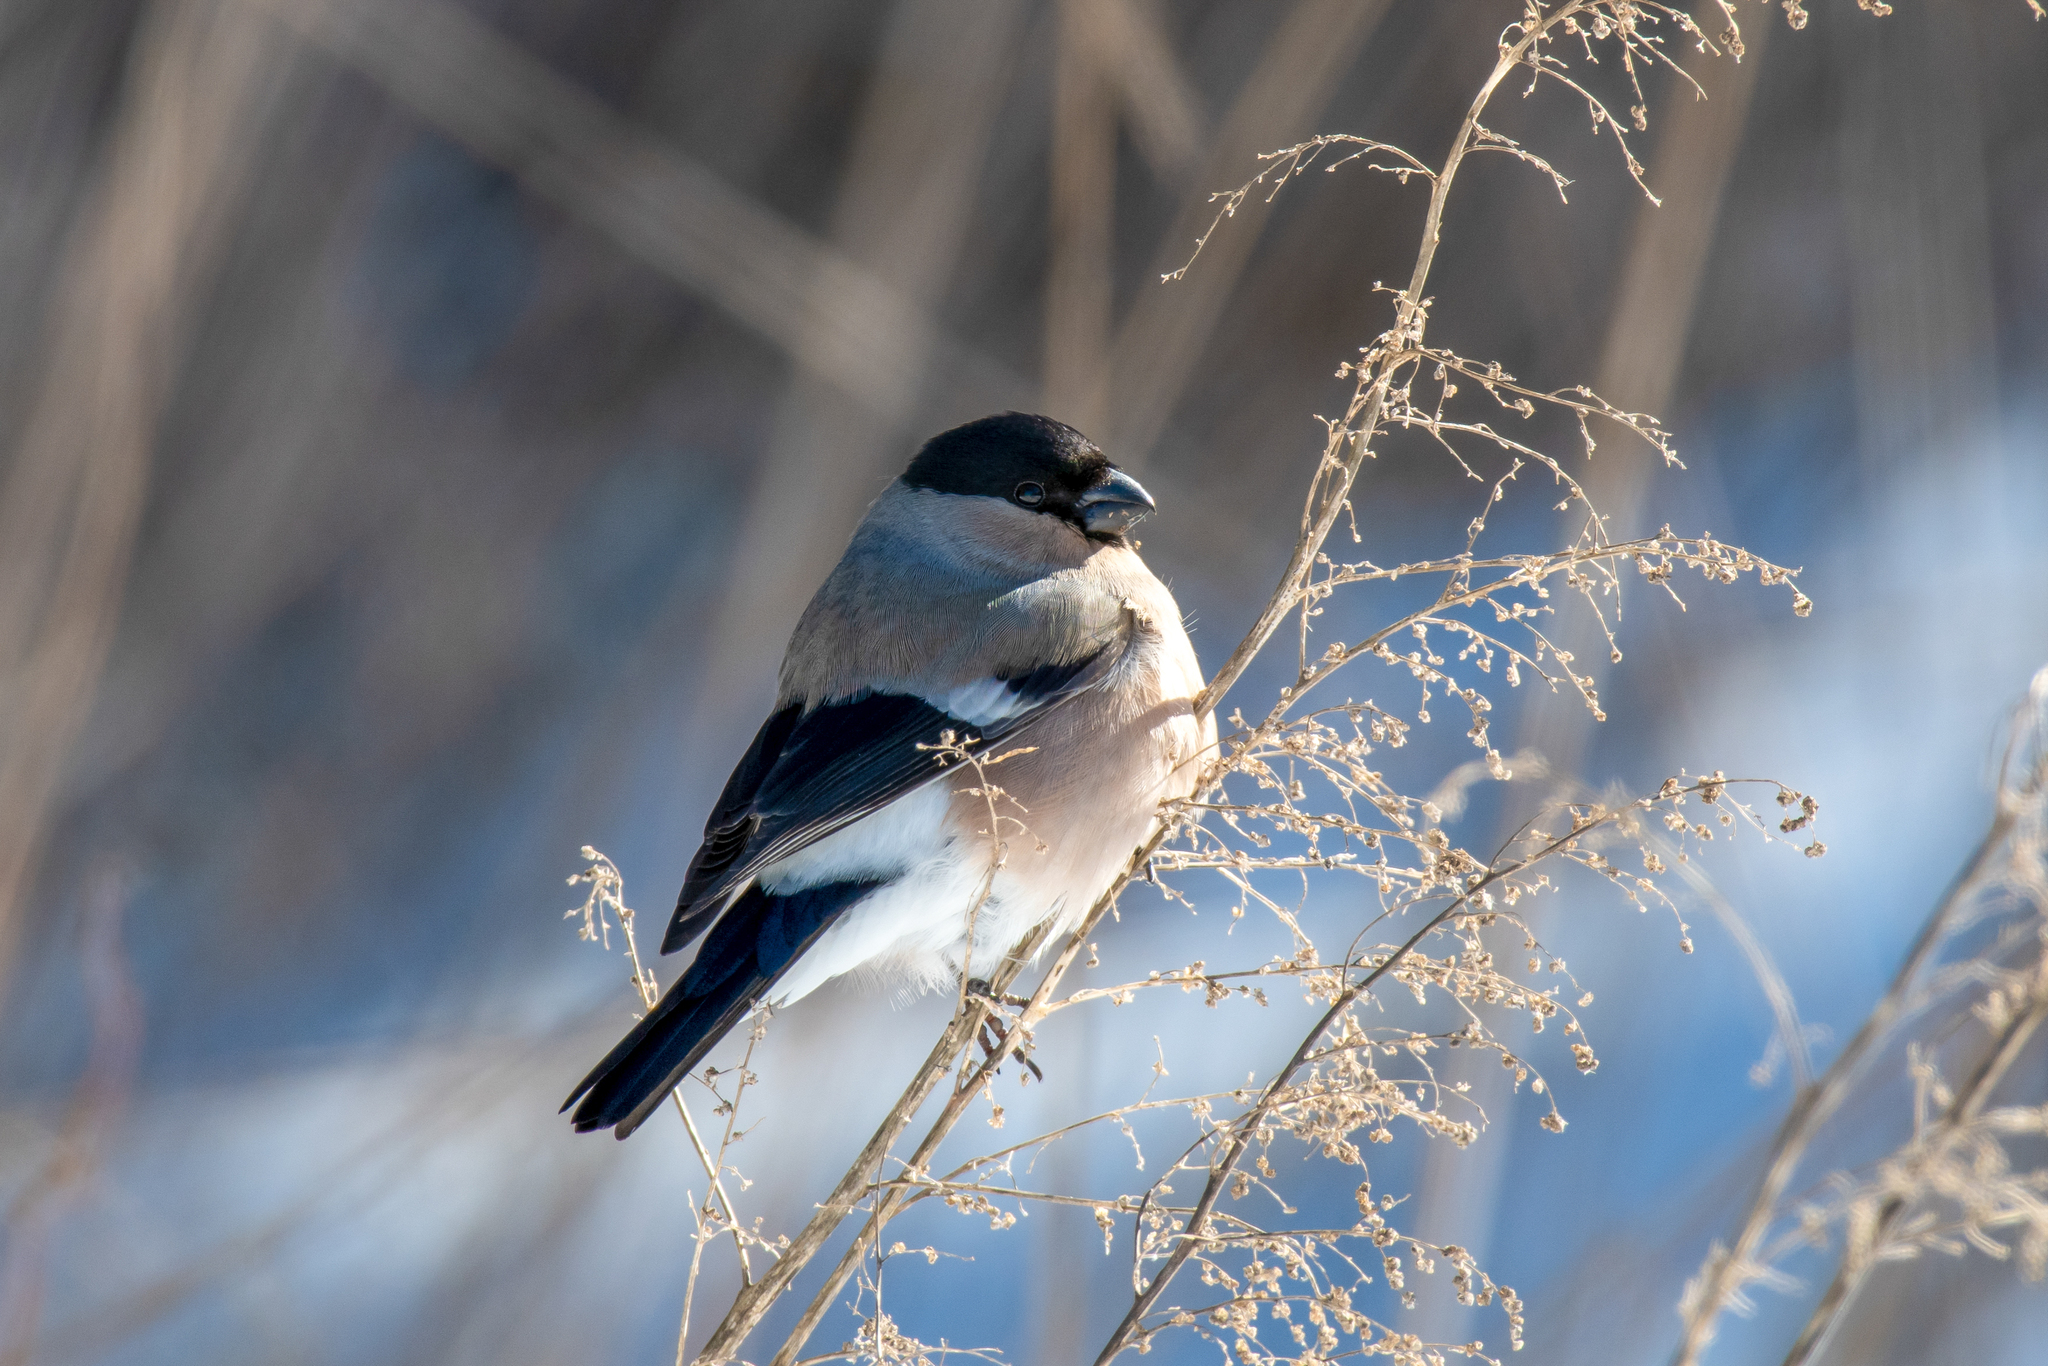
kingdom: Animalia
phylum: Chordata
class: Aves
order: Passeriformes
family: Fringillidae
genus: Pyrrhula
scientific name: Pyrrhula pyrrhula
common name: Eurasian bullfinch
